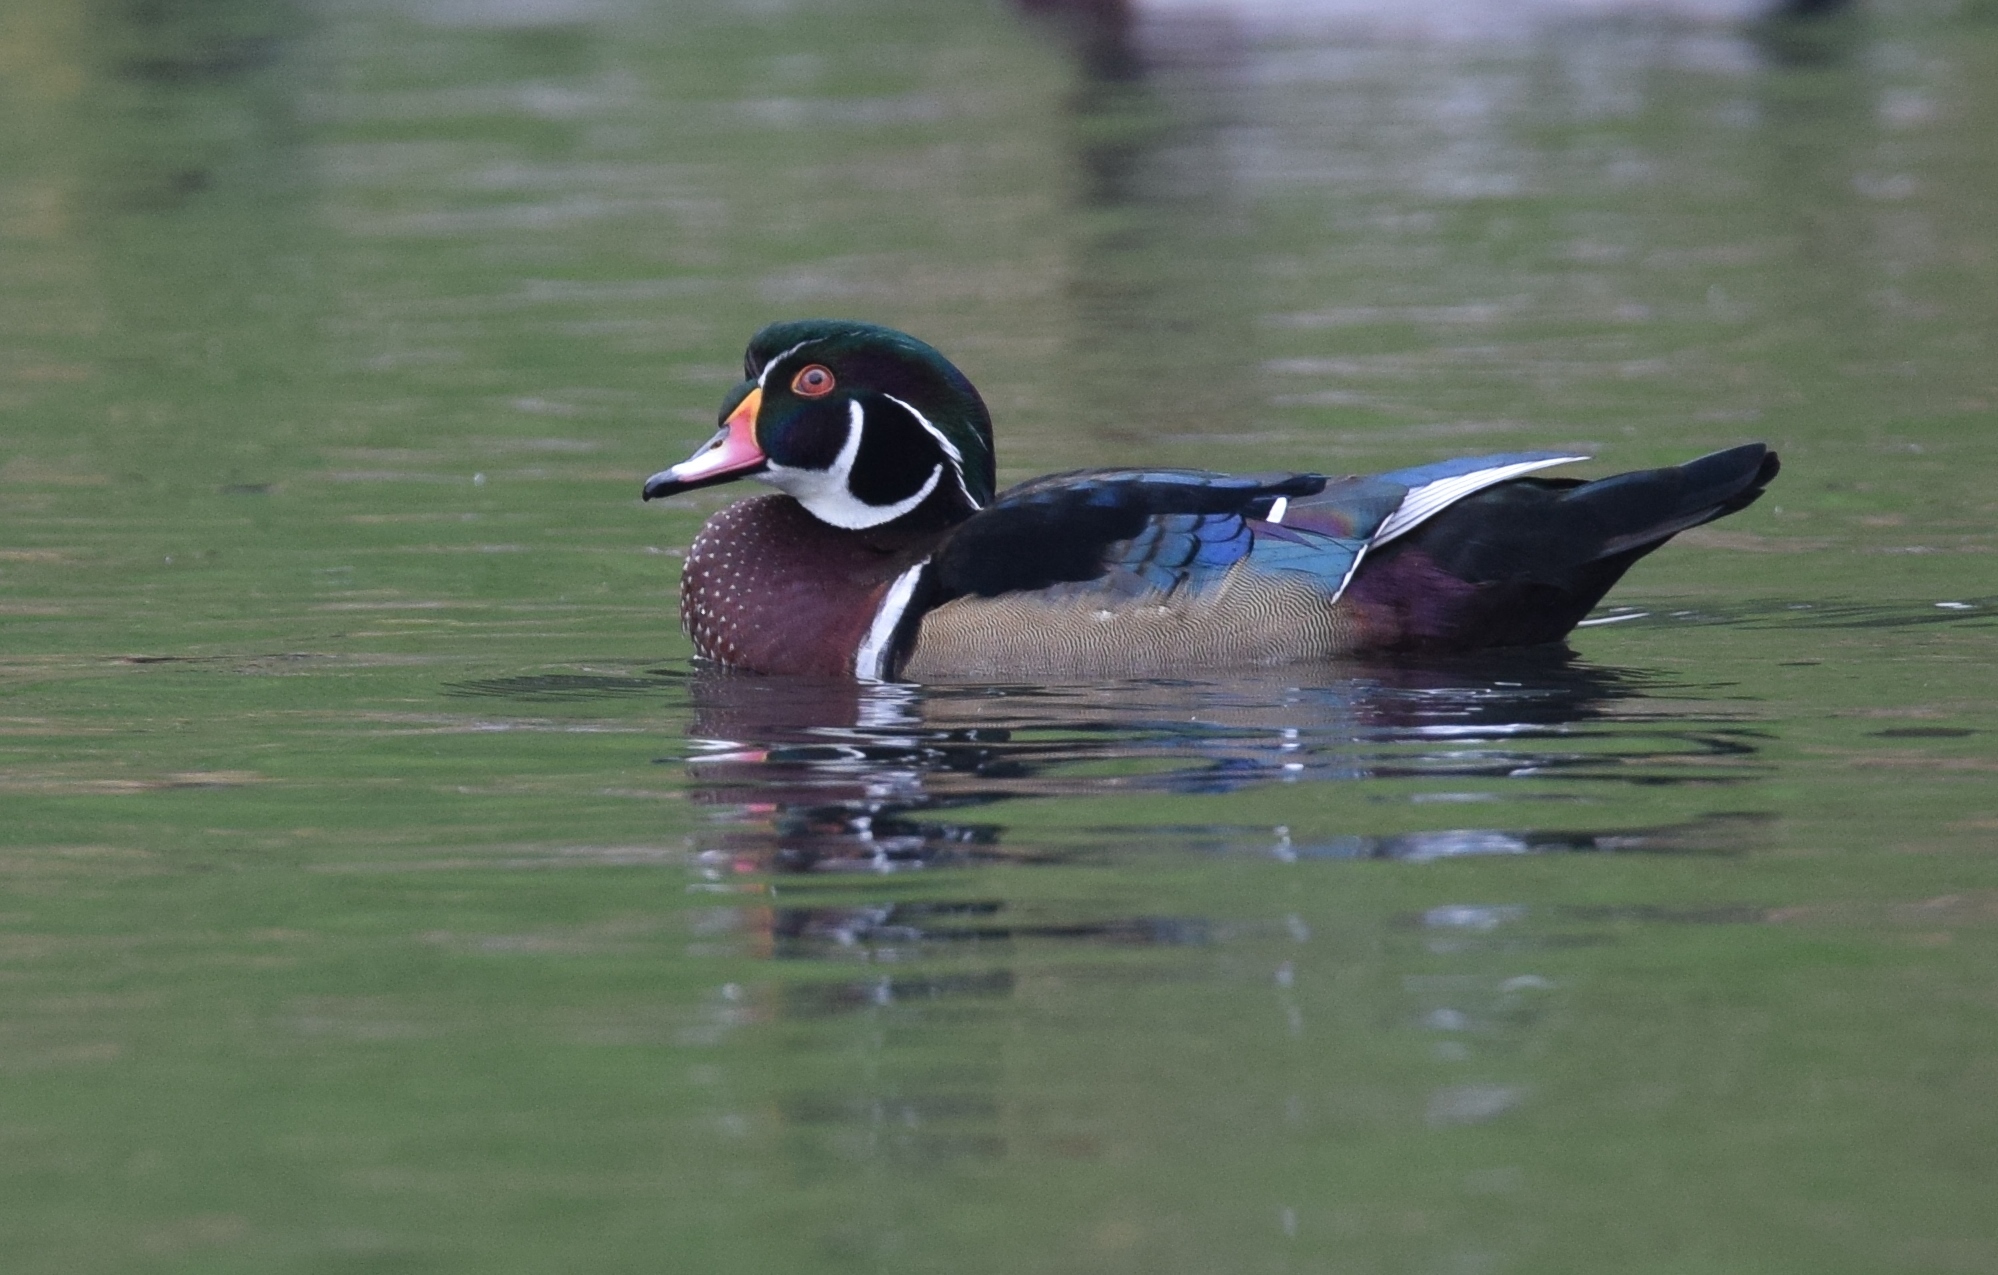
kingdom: Animalia
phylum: Chordata
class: Aves
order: Anseriformes
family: Anatidae
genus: Aix
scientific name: Aix sponsa
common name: Wood duck
